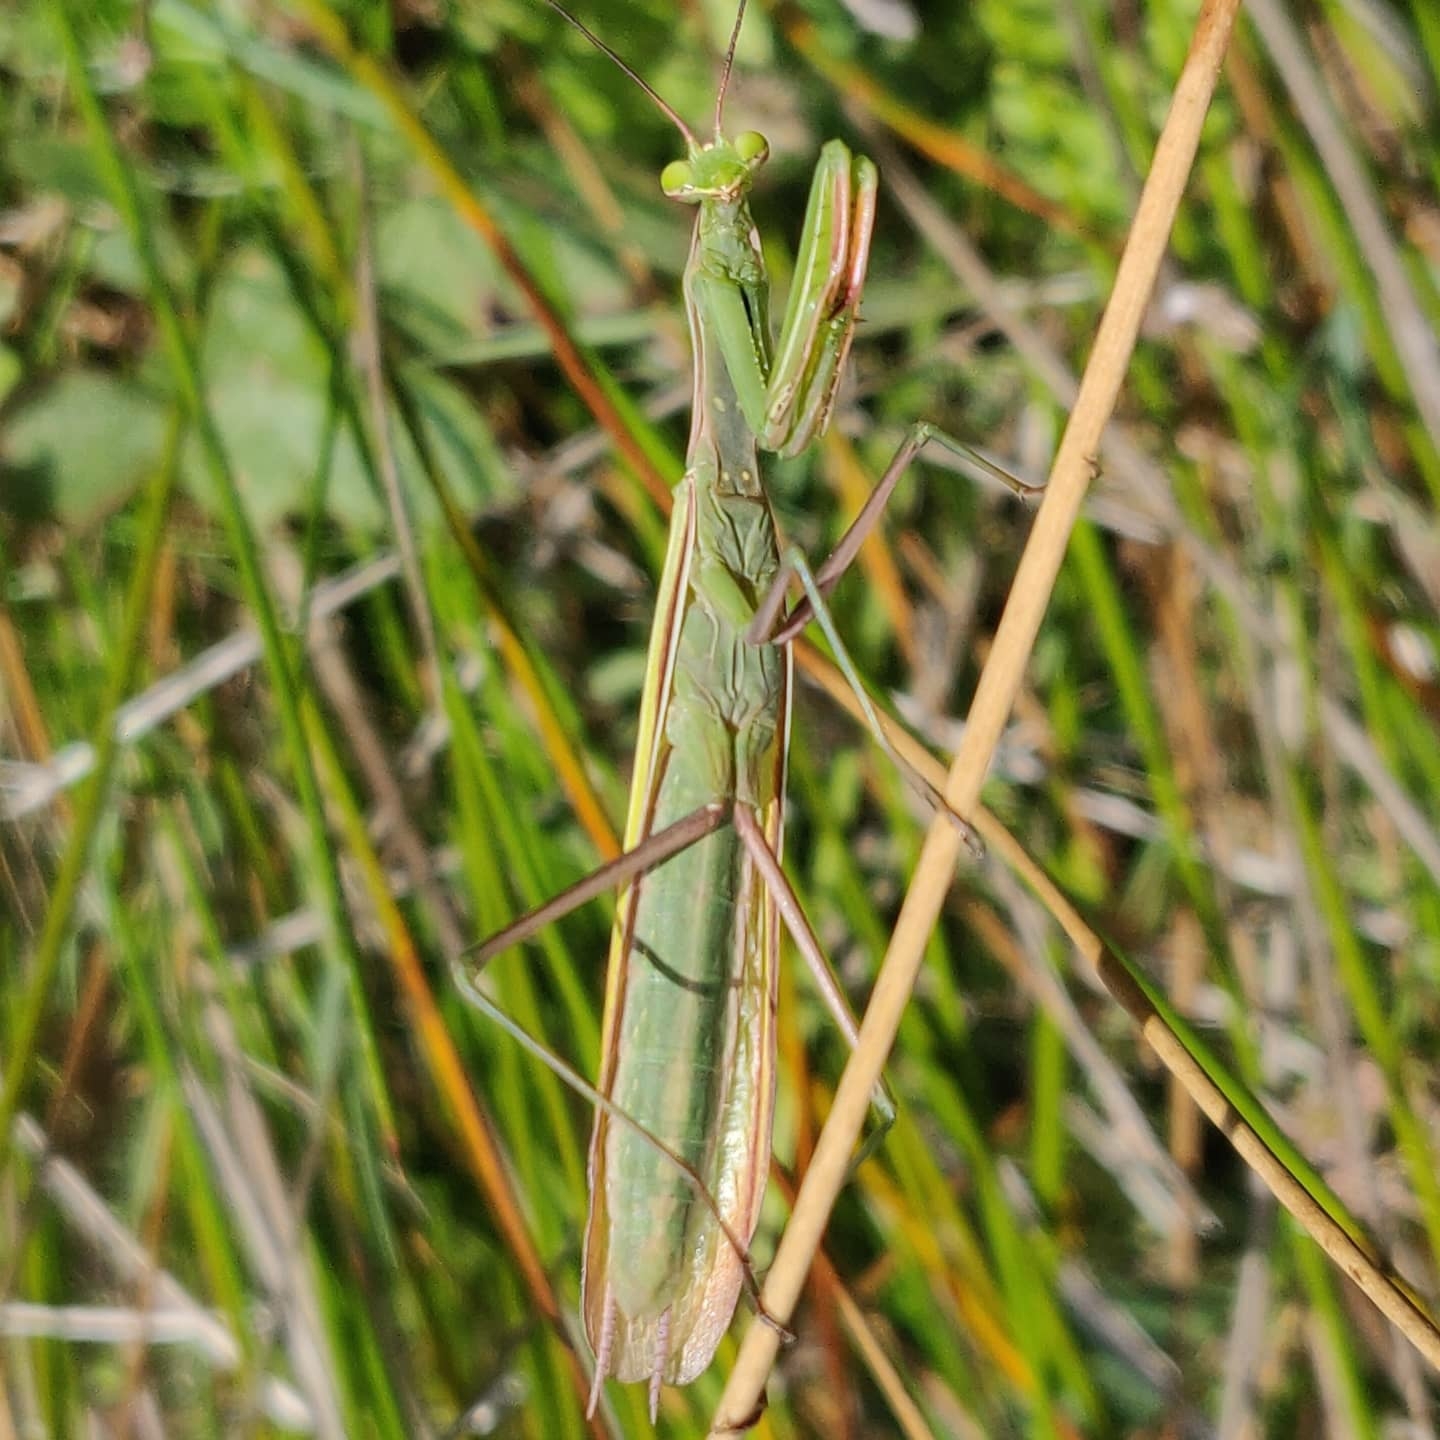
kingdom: Animalia
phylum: Arthropoda
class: Insecta
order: Mantodea
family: Mantidae
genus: Mantis
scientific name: Mantis religiosa
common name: Praying mantis
